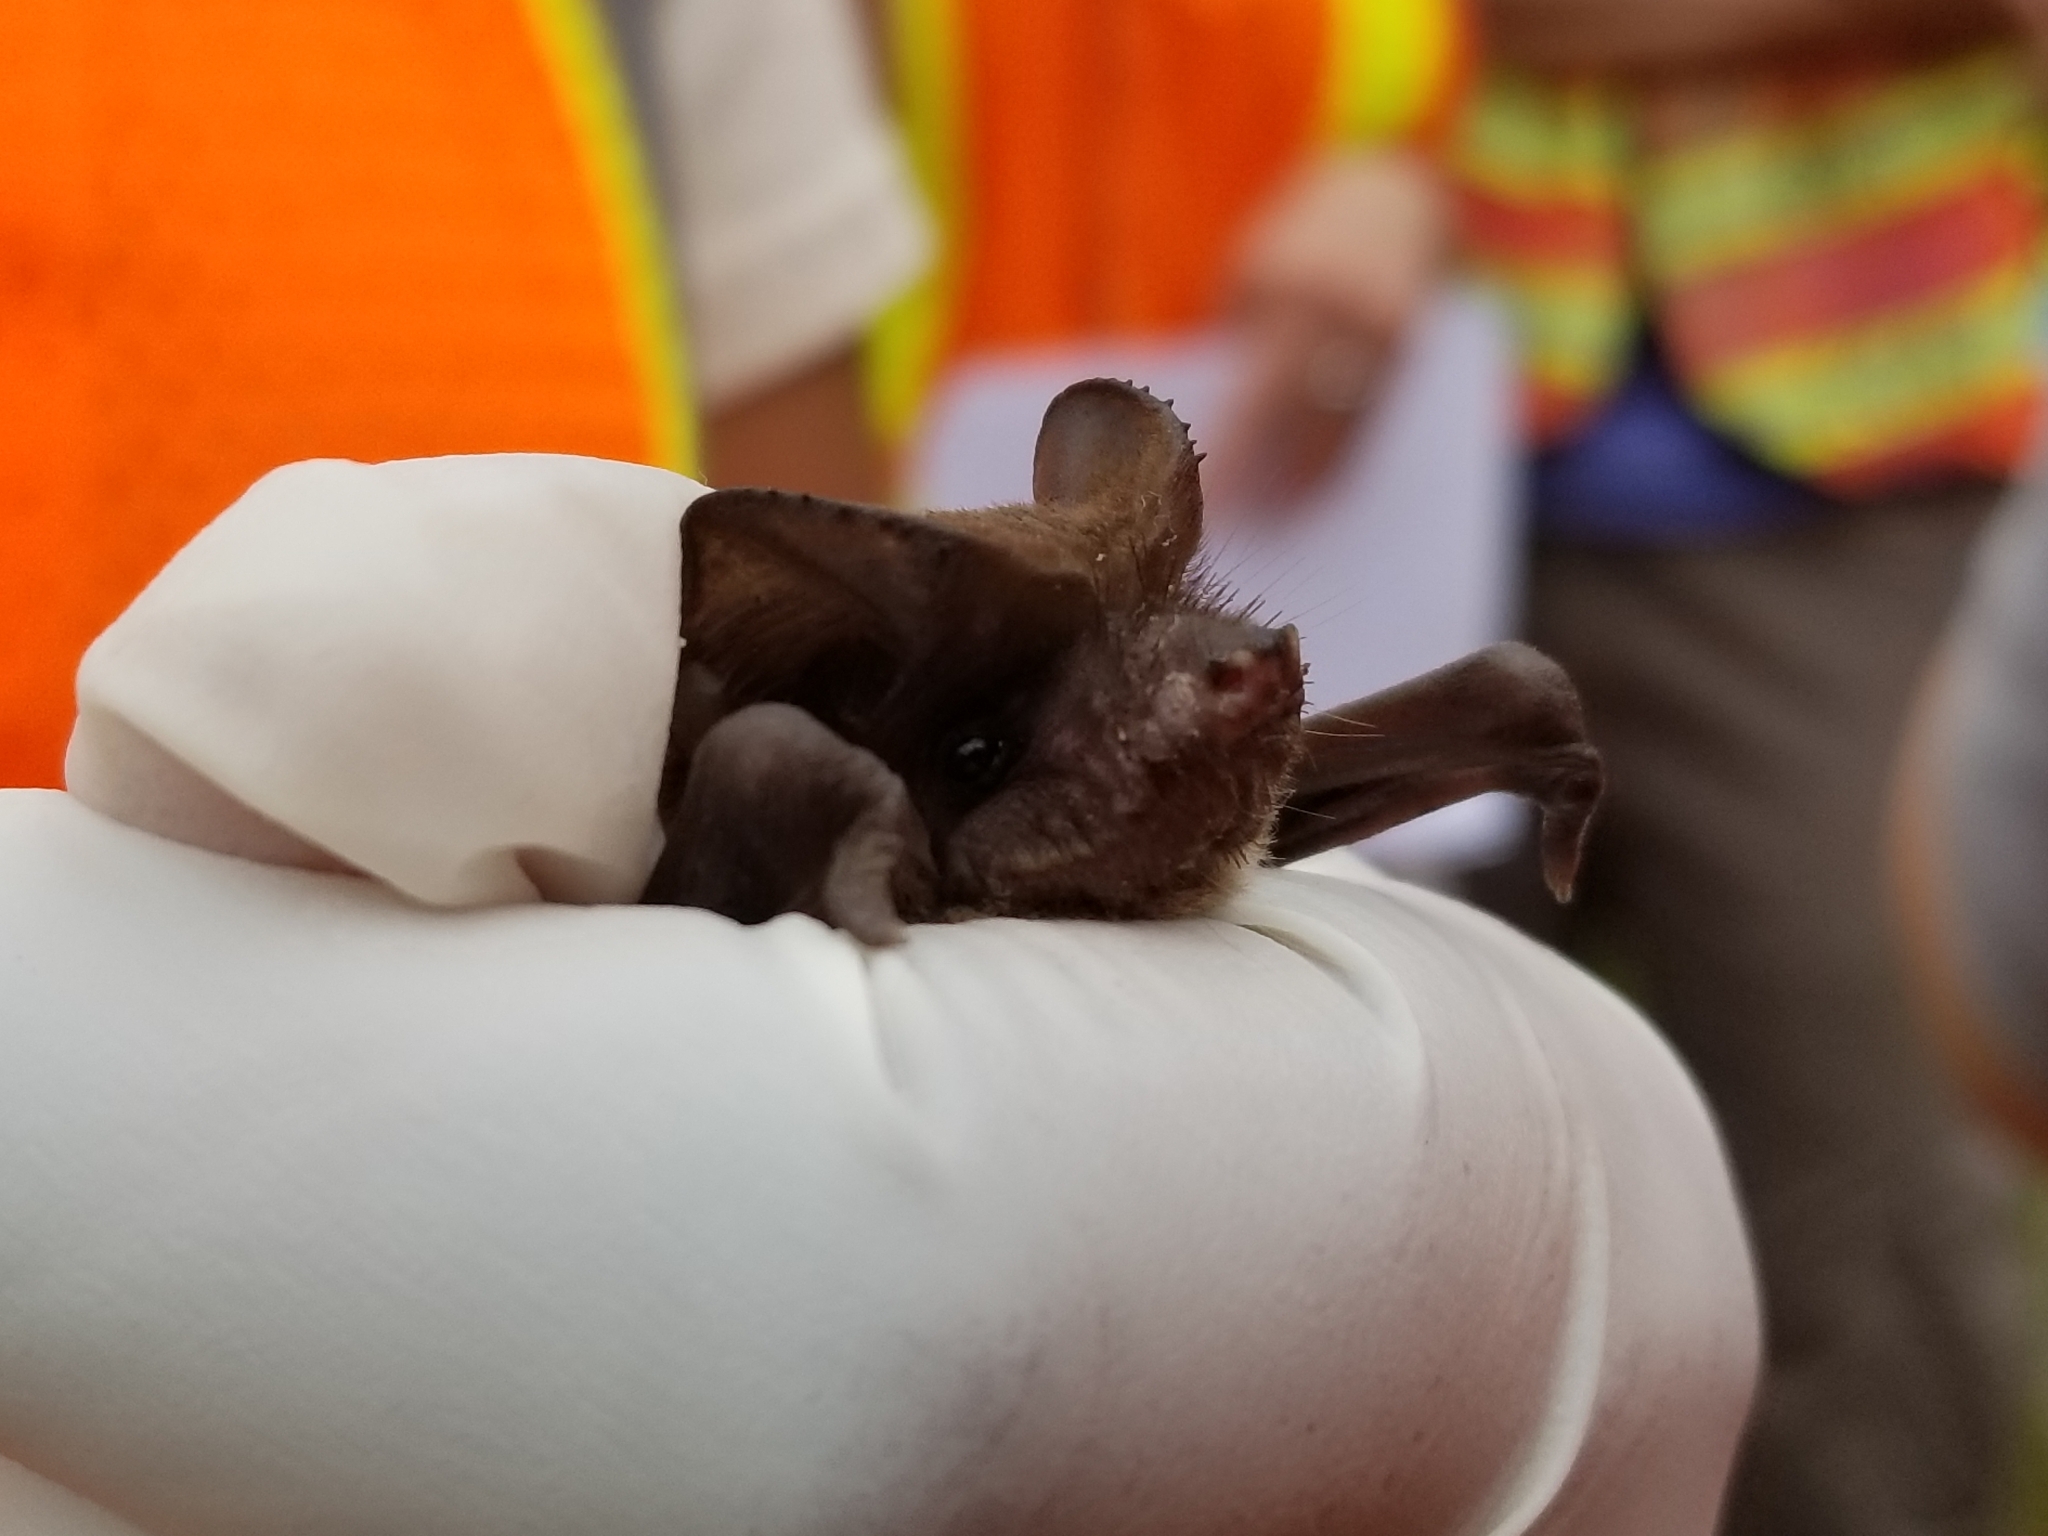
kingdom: Animalia
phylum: Chordata
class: Mammalia
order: Chiroptera
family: Molossidae
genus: Tadarida
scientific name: Tadarida brasiliensis
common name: Mexican free-tailed bat
